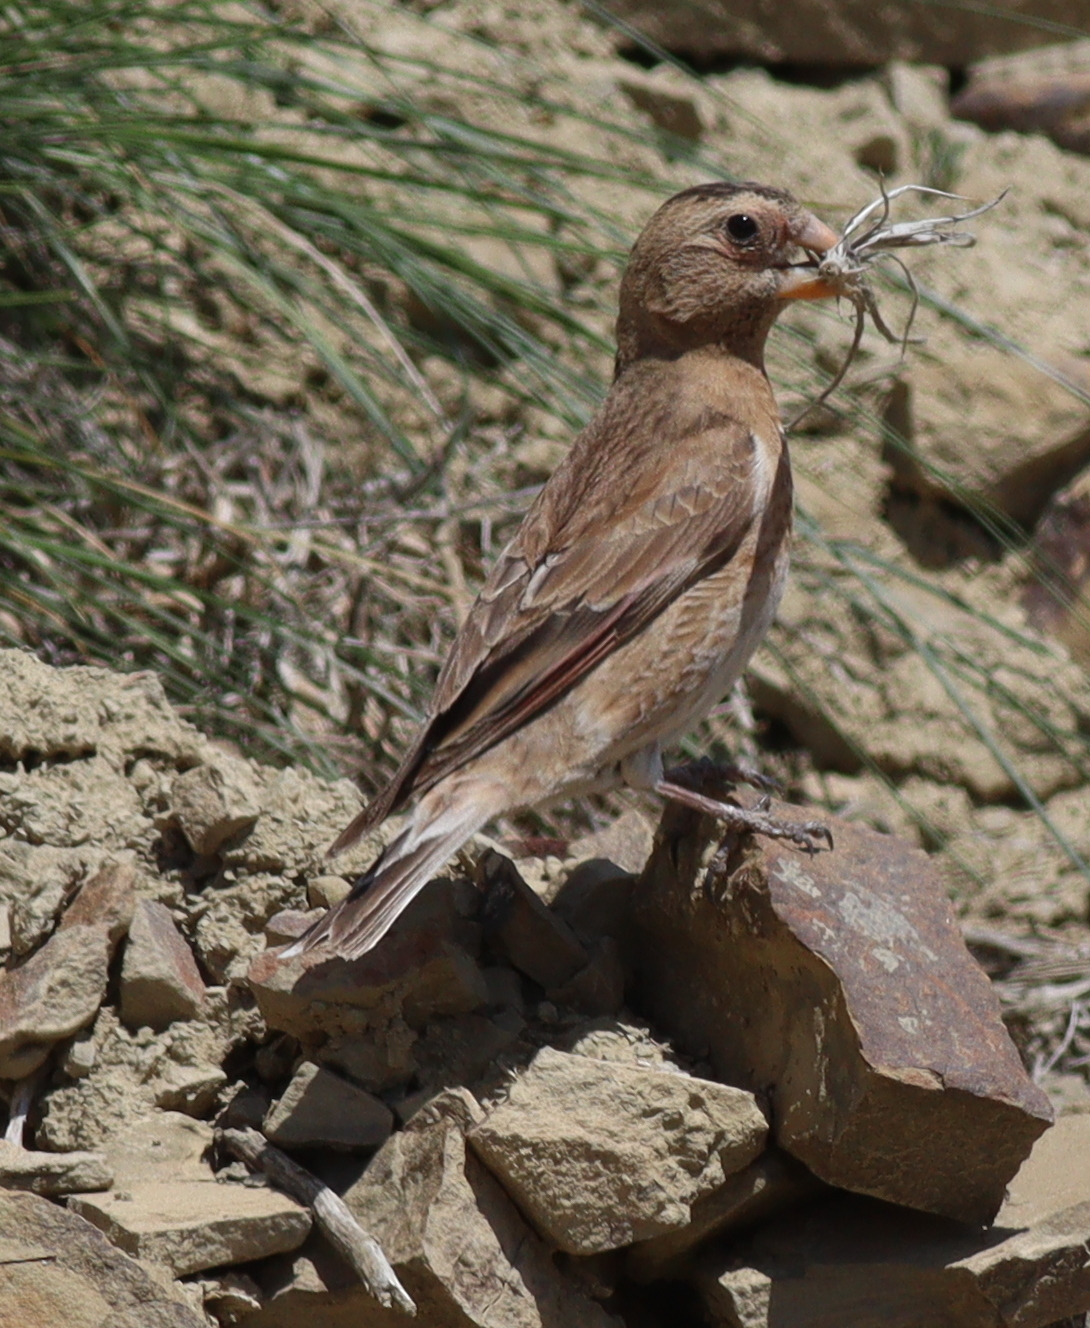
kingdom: Animalia
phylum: Chordata
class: Aves
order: Passeriformes
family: Fringillidae
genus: Rhodopechys
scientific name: Rhodopechys sanguineus
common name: Crimson-winged finch
